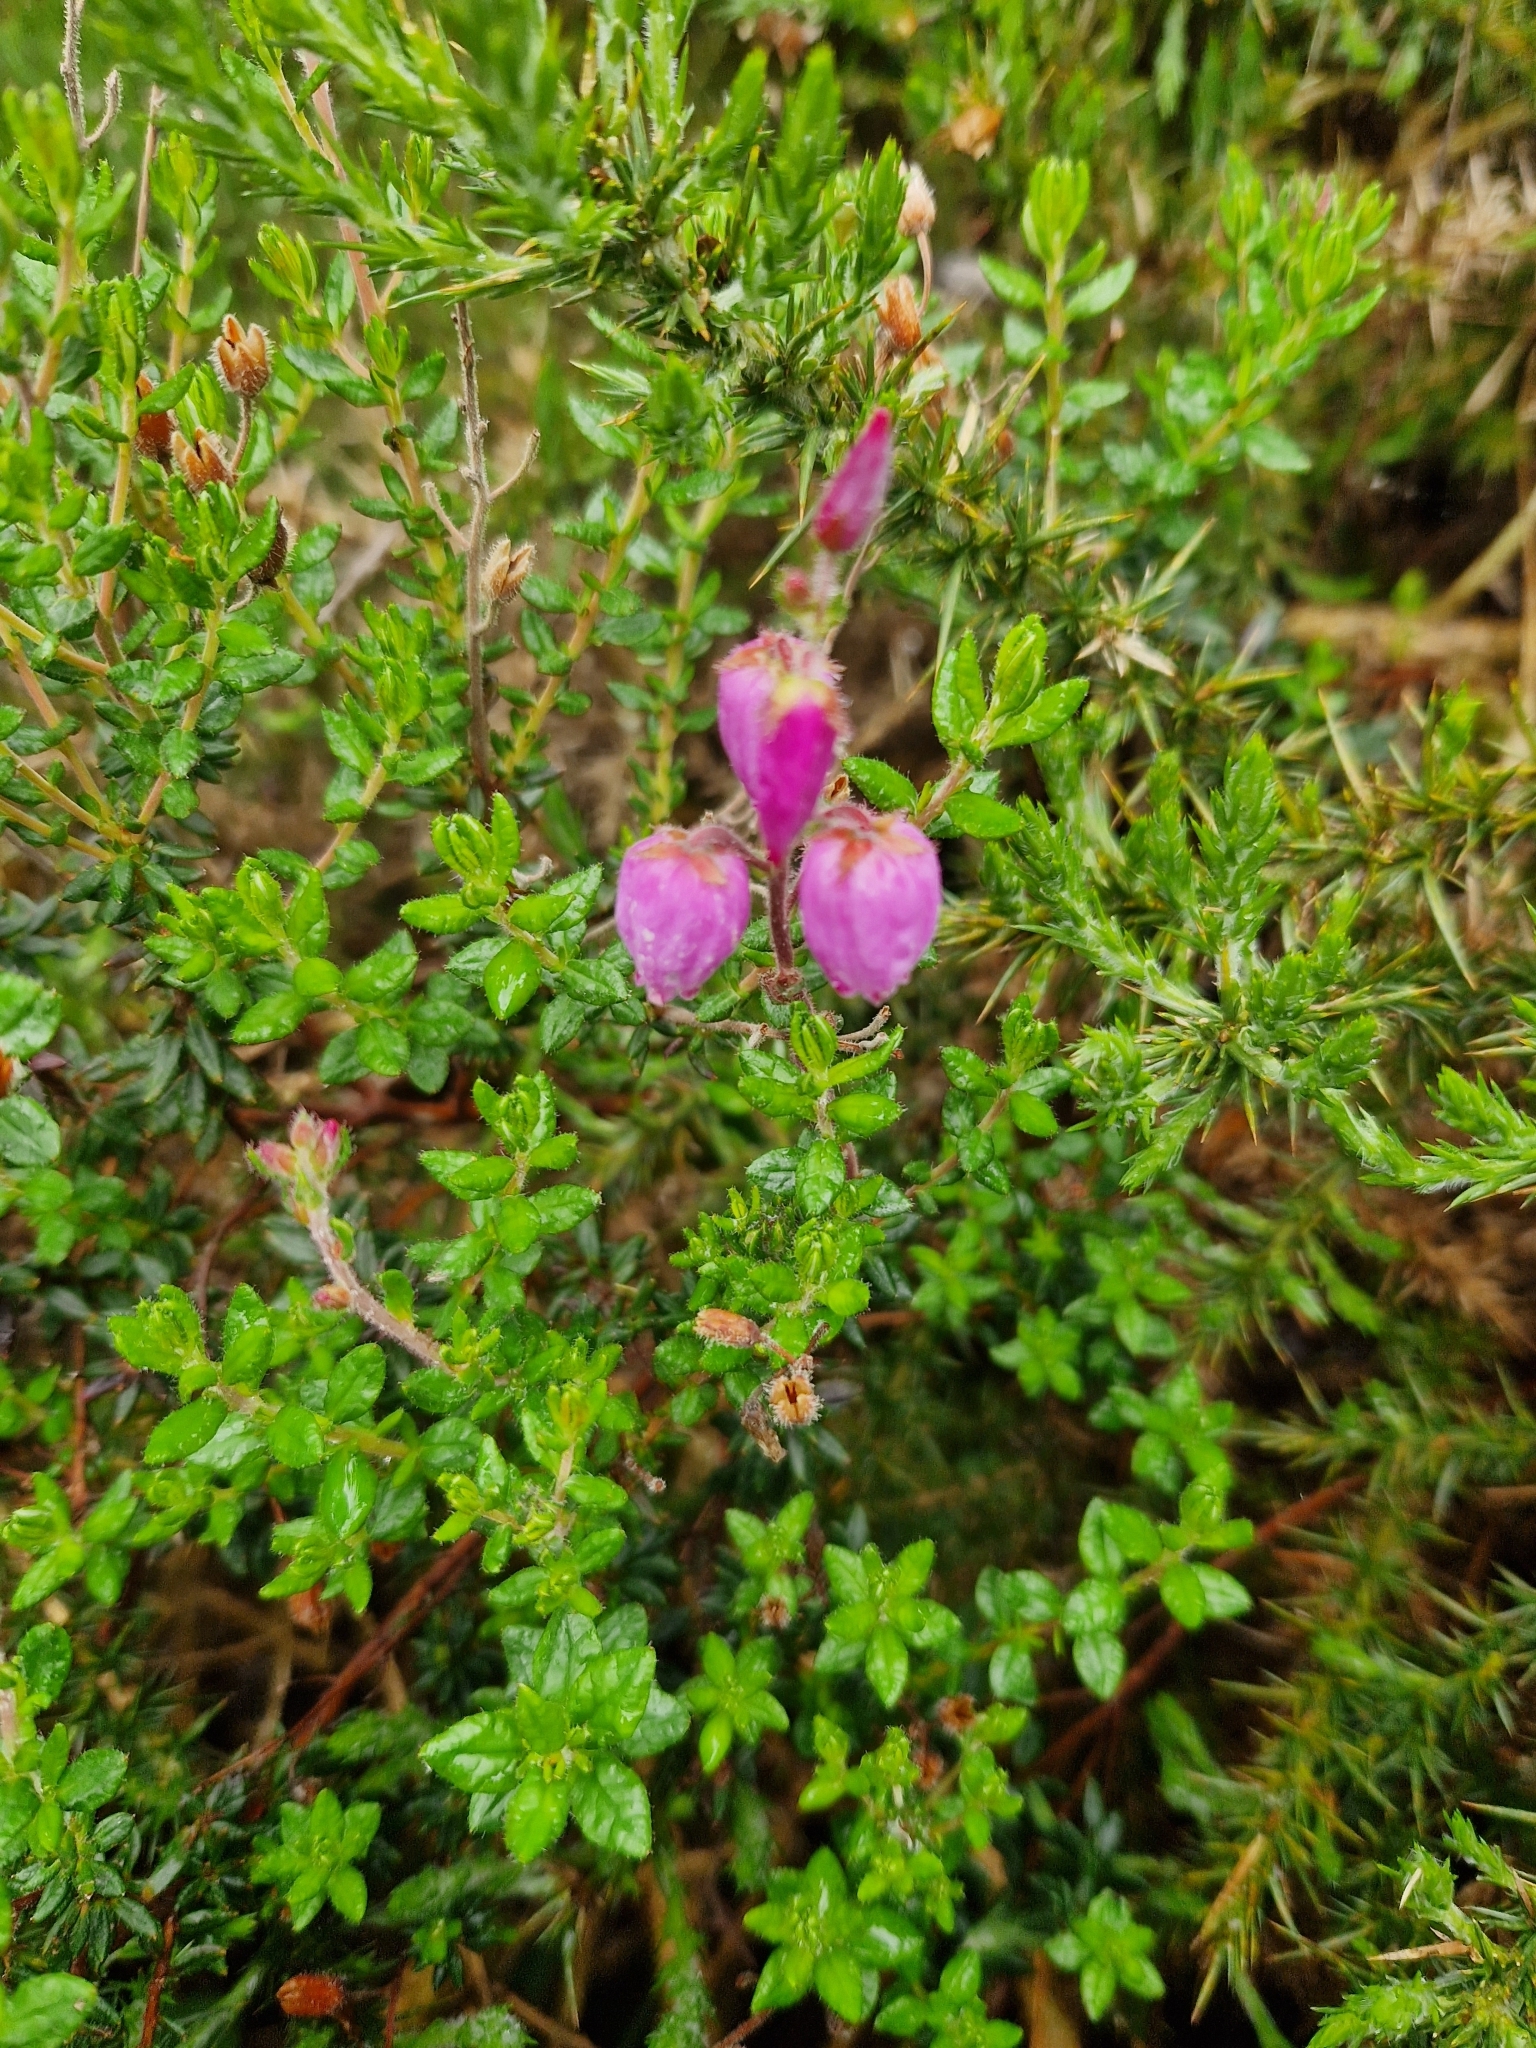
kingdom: Plantae
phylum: Tracheophyta
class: Magnoliopsida
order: Ericales
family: Ericaceae
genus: Daboecia
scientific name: Daboecia cantabrica
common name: St. dabeoc's-heath
